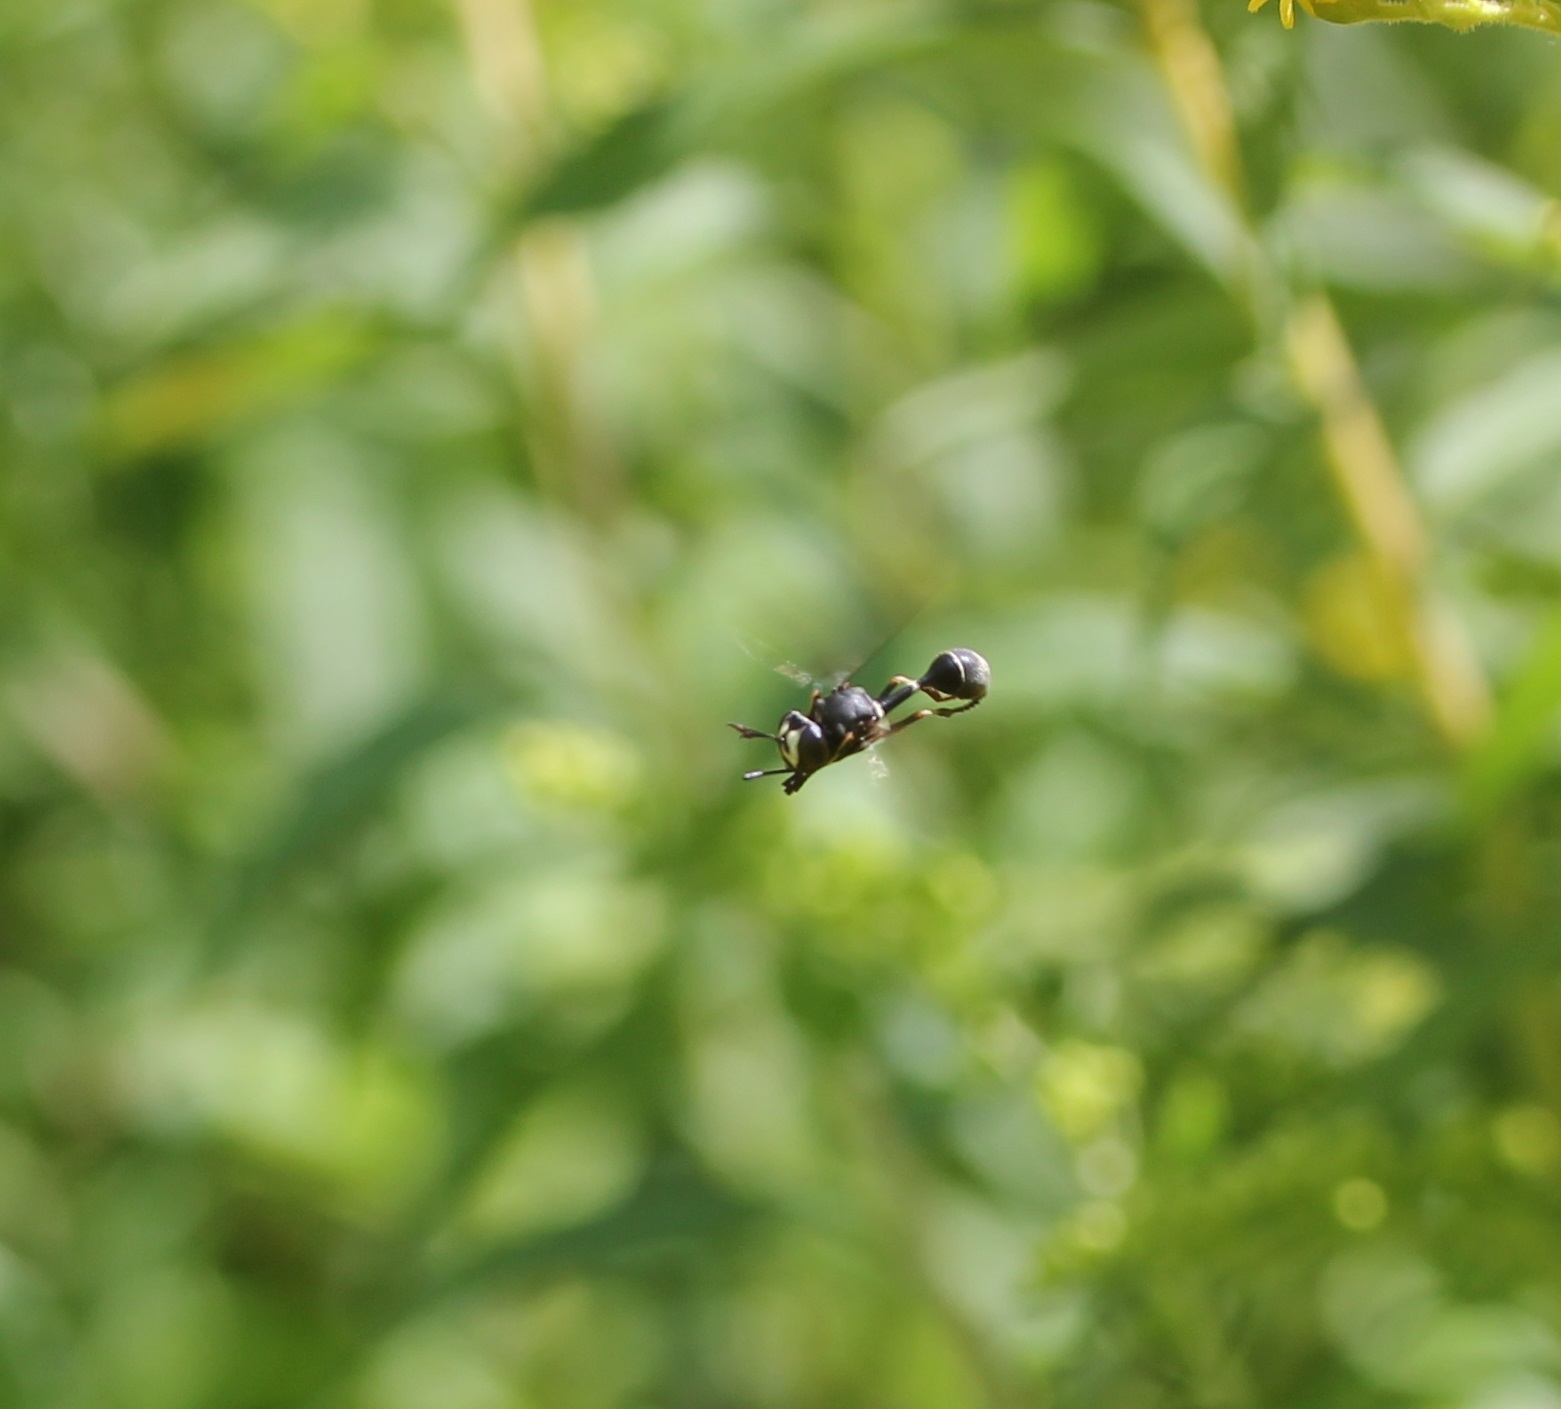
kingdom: Animalia
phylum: Arthropoda
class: Insecta
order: Diptera
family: Conopidae
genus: Physocephala
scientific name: Physocephala tibialis
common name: Common eastern physocephala
